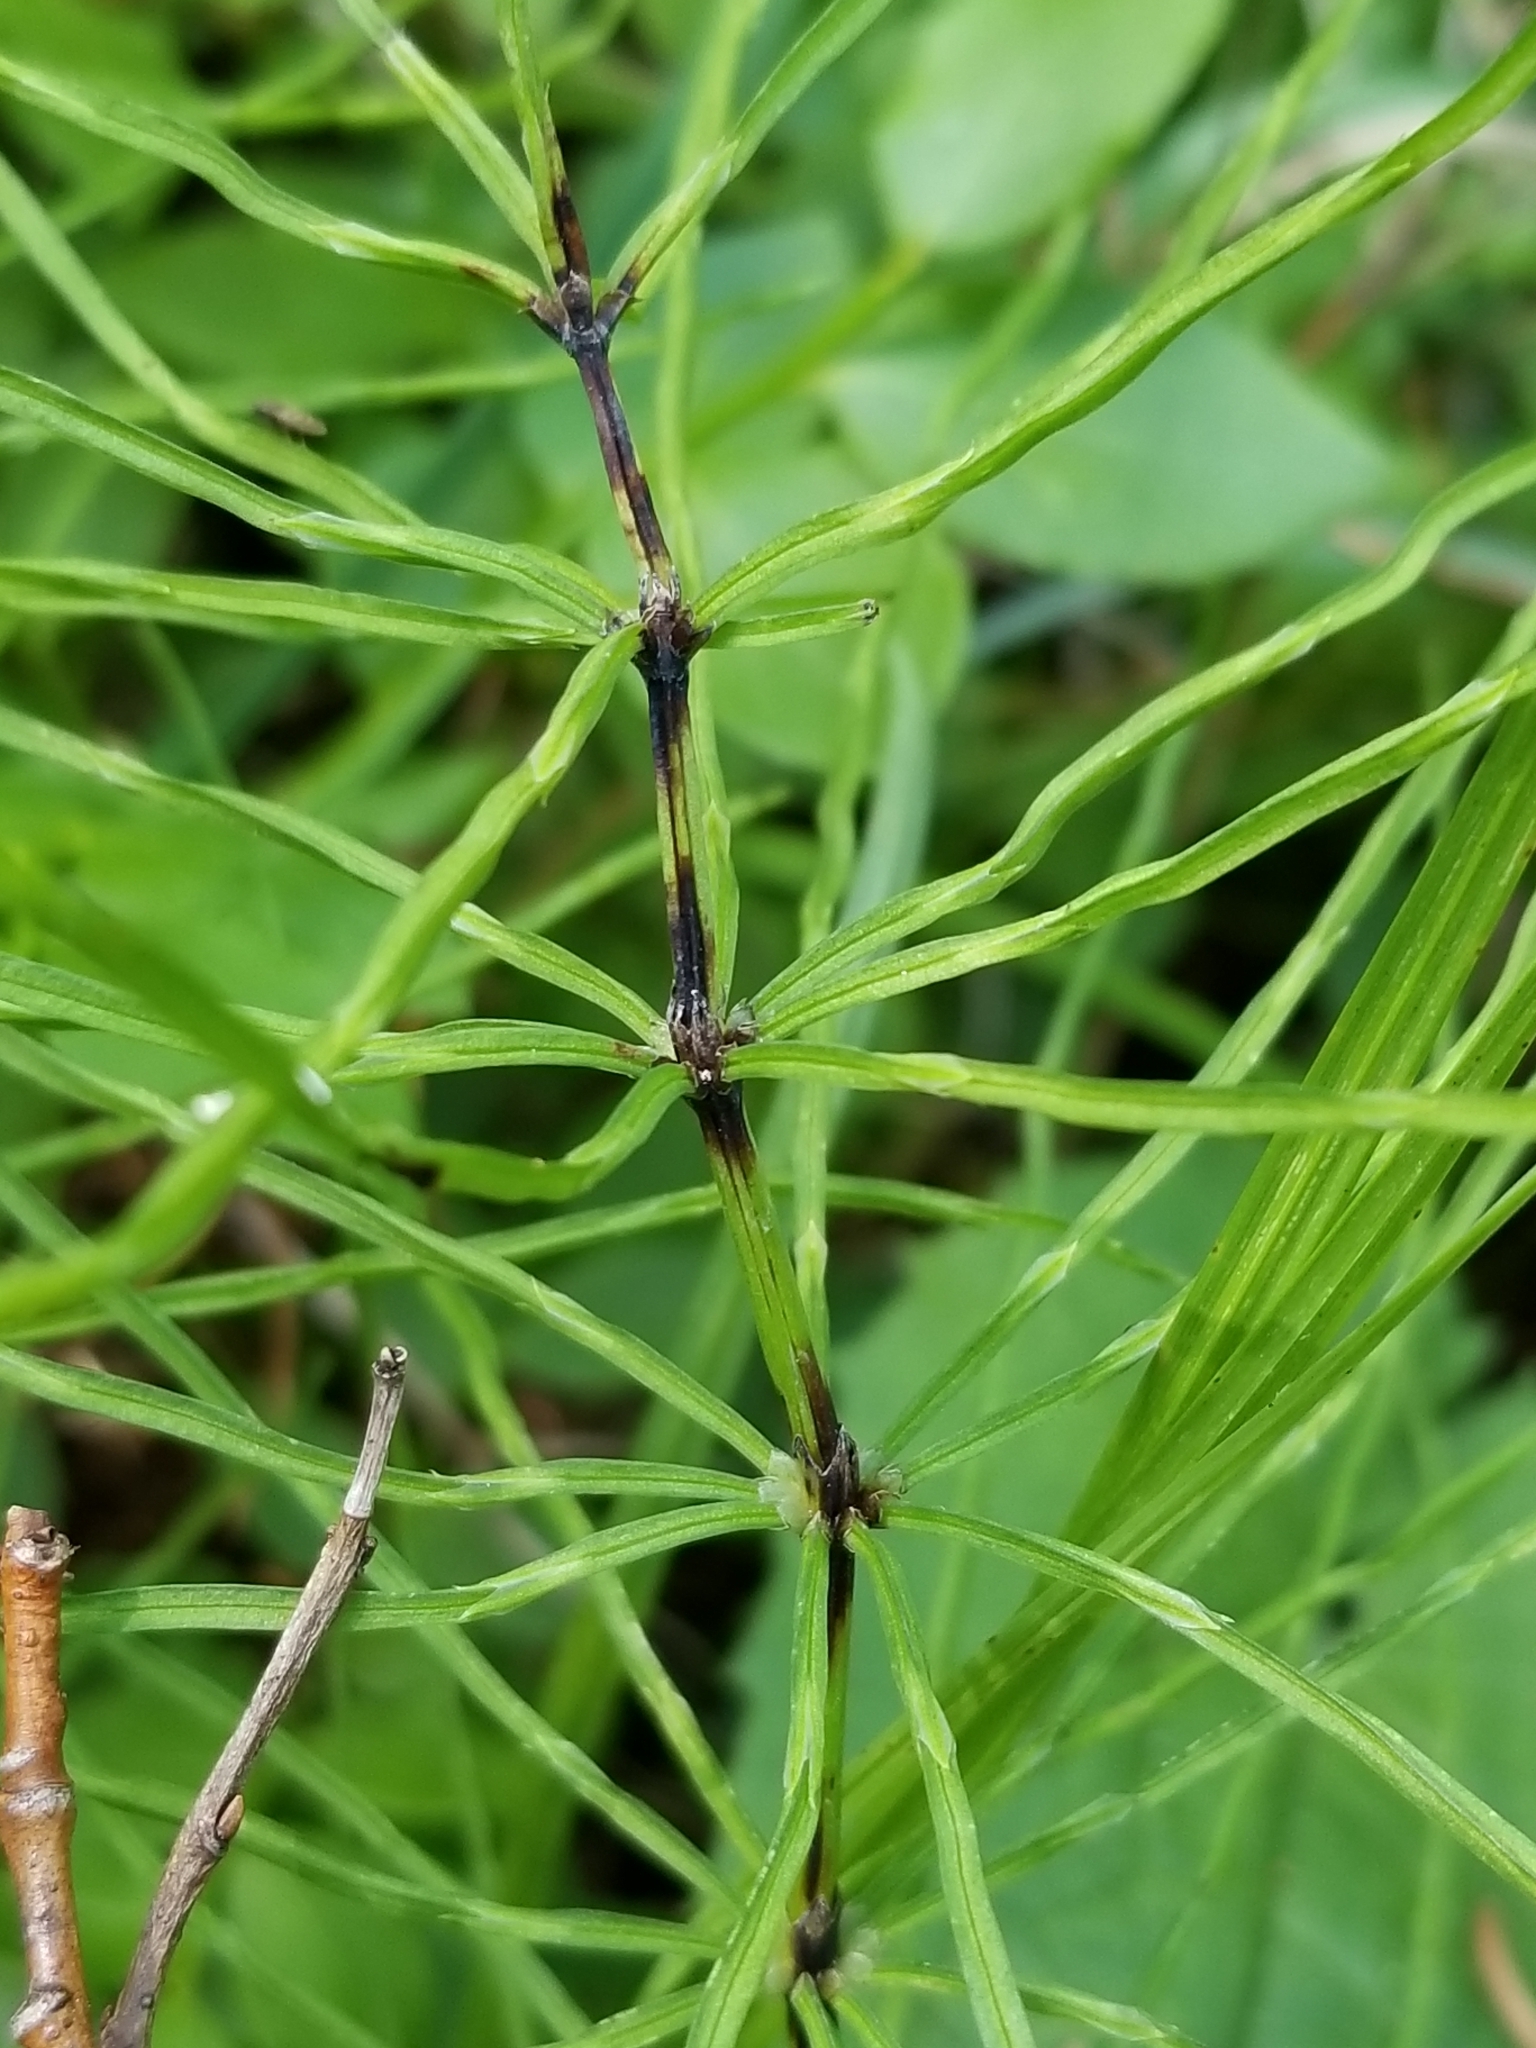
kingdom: Plantae
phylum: Tracheophyta
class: Polypodiopsida
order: Equisetales
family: Equisetaceae
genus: Equisetum
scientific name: Equisetum arvense
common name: Field horsetail
